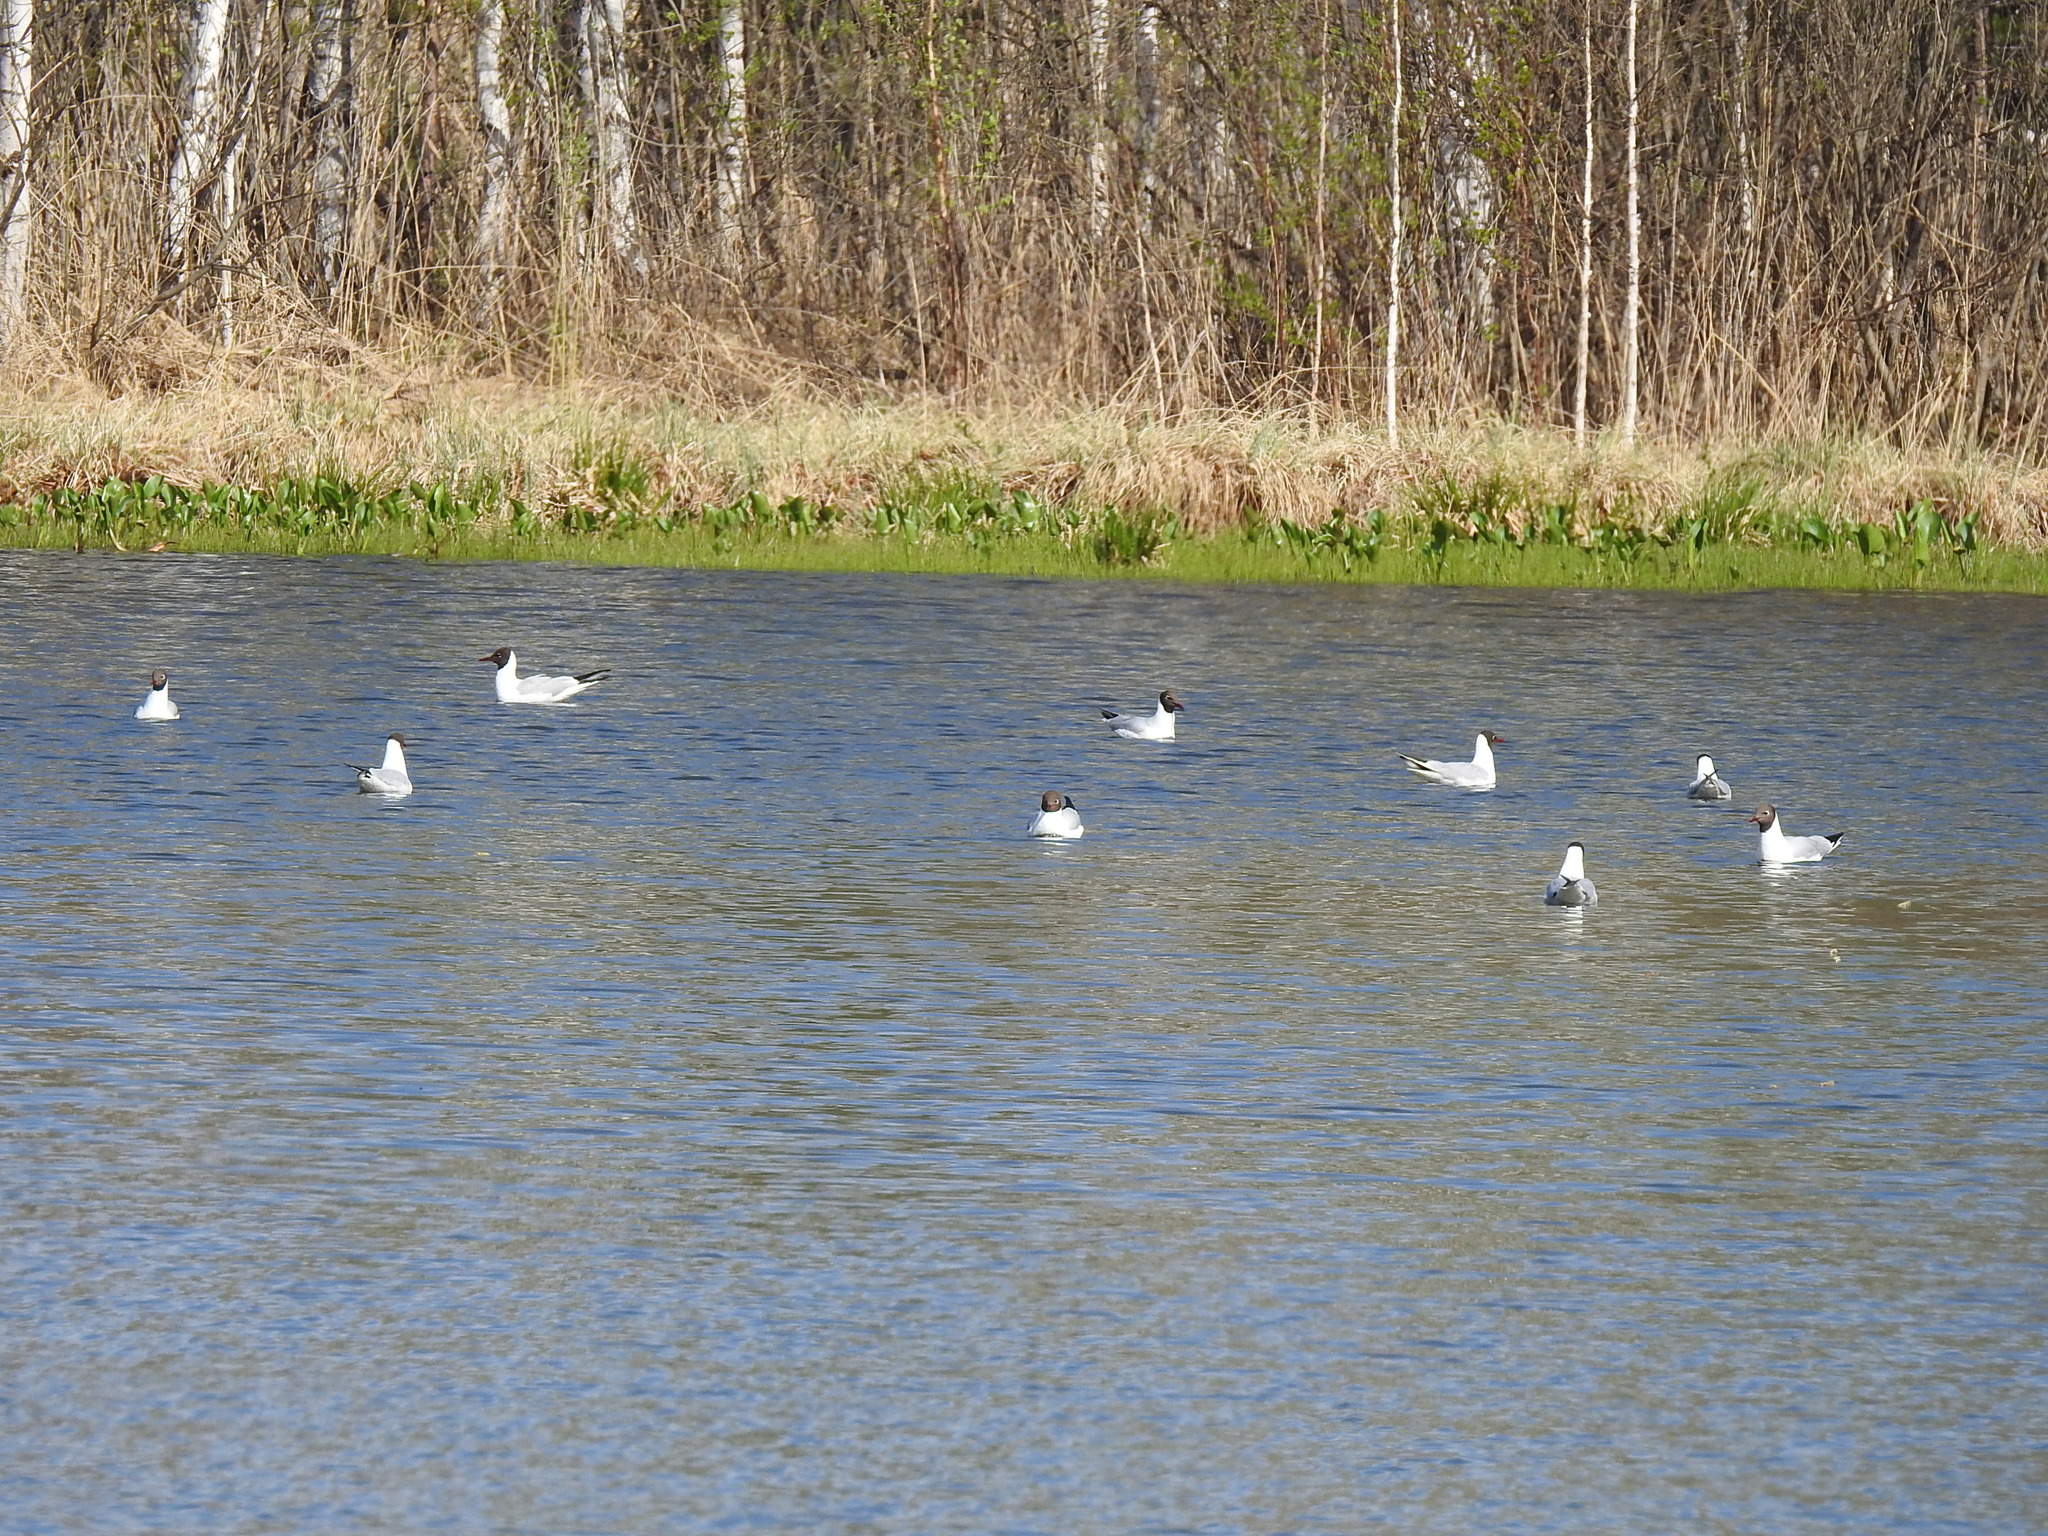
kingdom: Animalia
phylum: Chordata
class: Aves
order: Charadriiformes
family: Laridae
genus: Chroicocephalus
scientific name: Chroicocephalus ridibundus
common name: Black-headed gull
